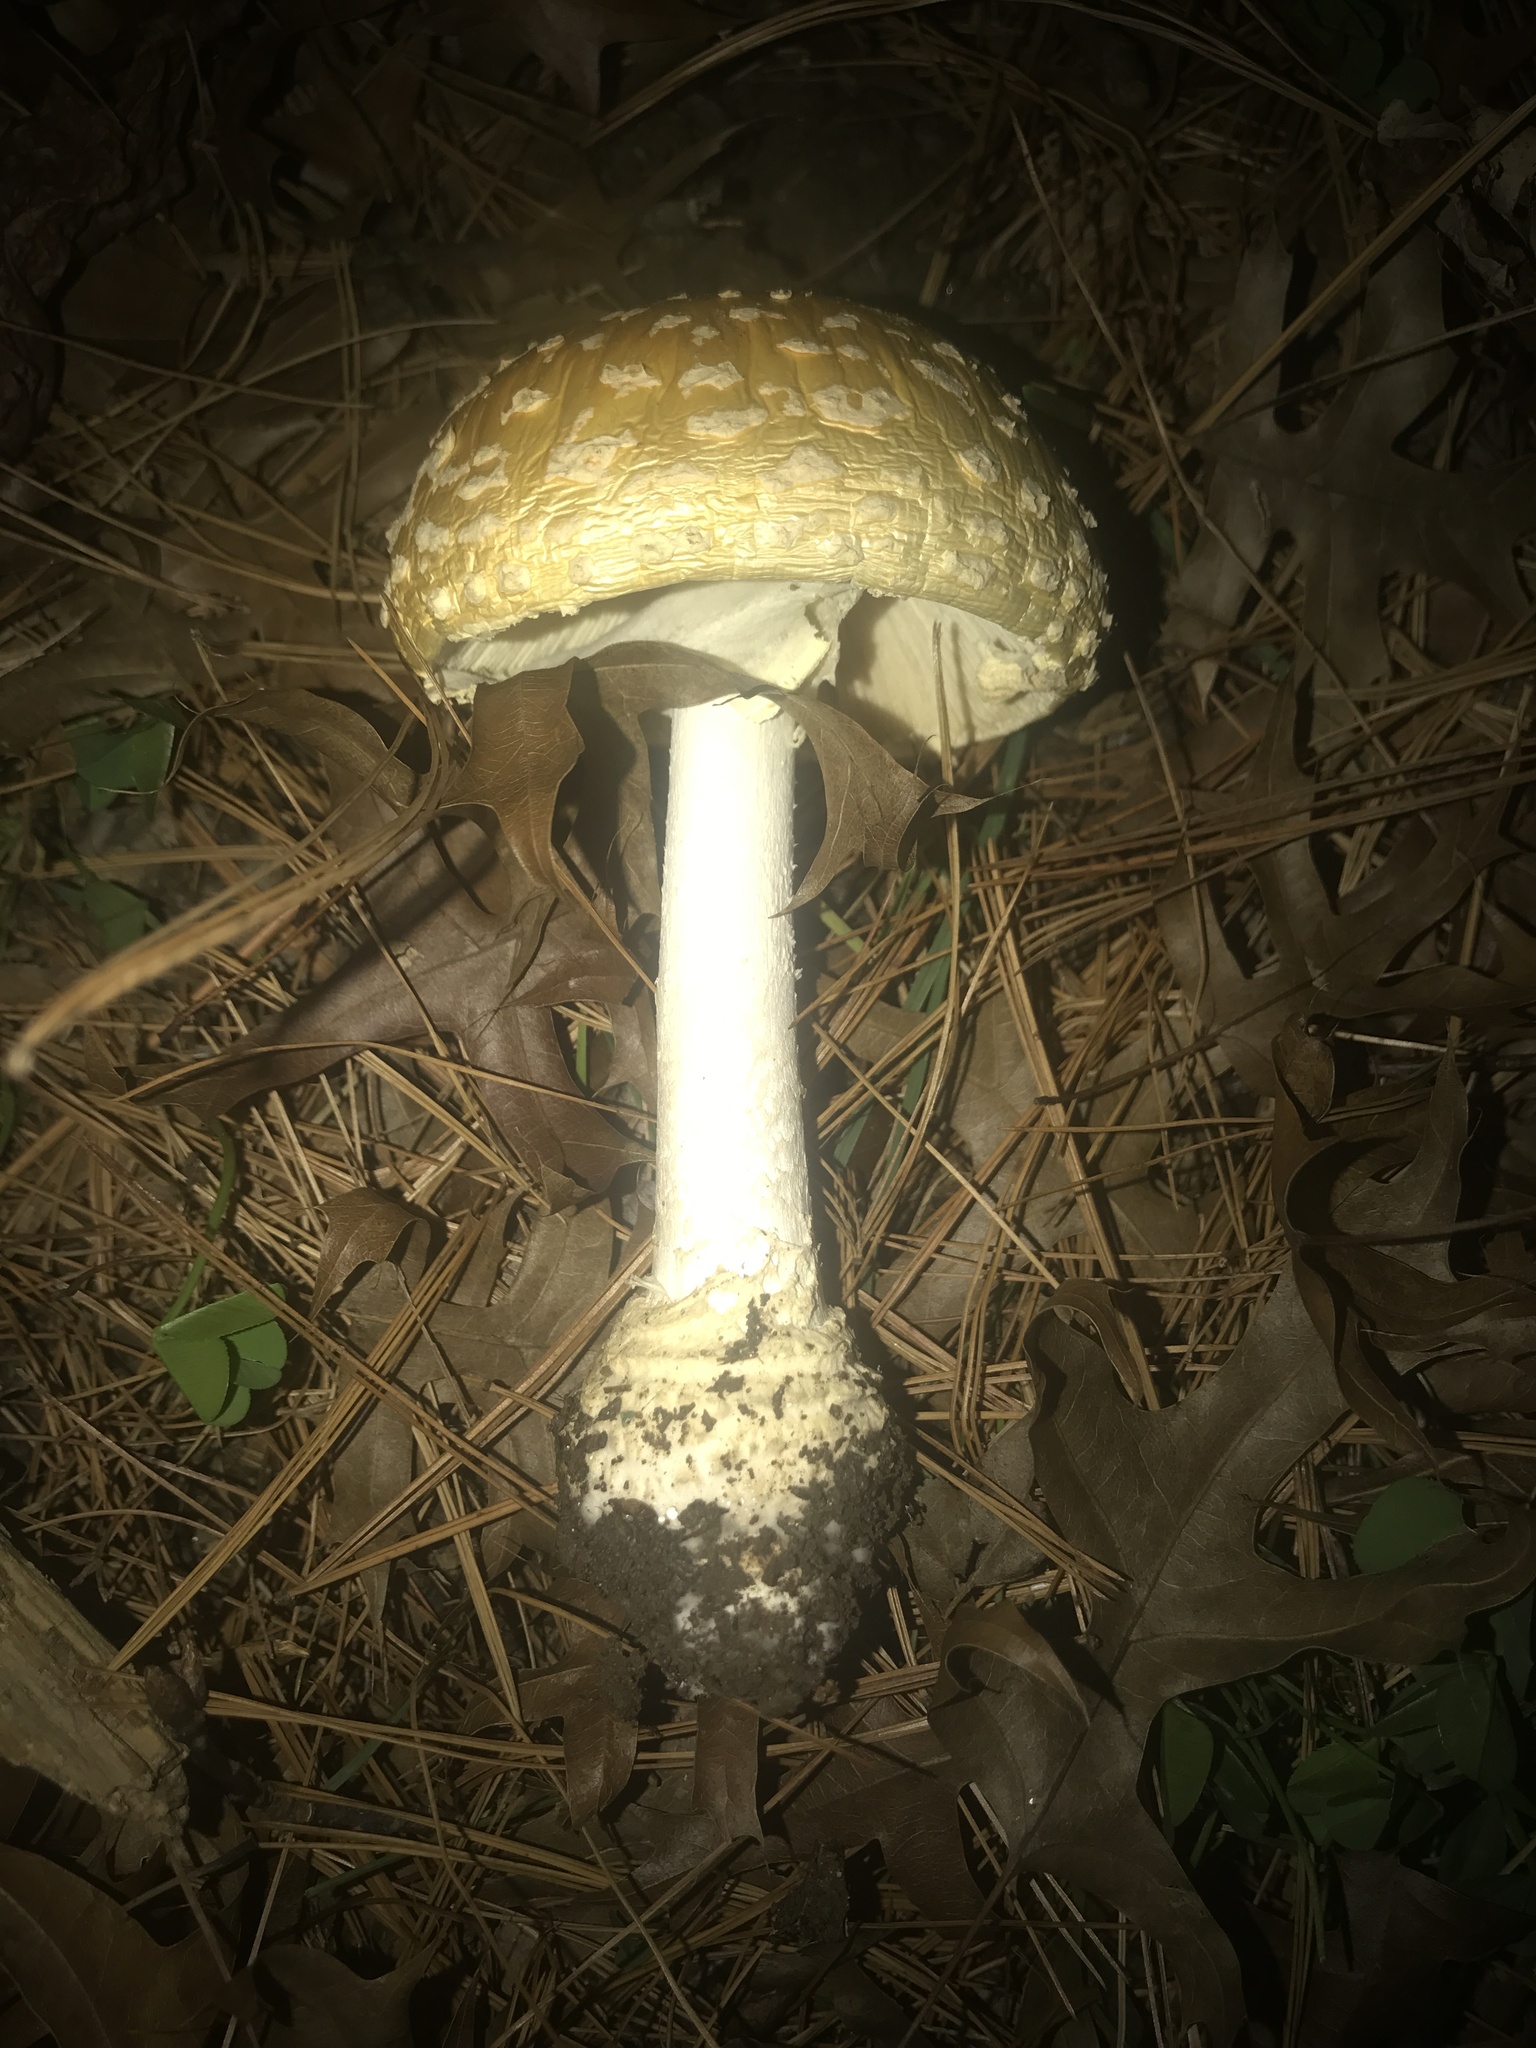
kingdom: Fungi
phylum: Basidiomycota
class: Agaricomycetes
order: Agaricales
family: Amanitaceae
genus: Amanita
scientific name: Amanita muscaria
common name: Fly agaric
